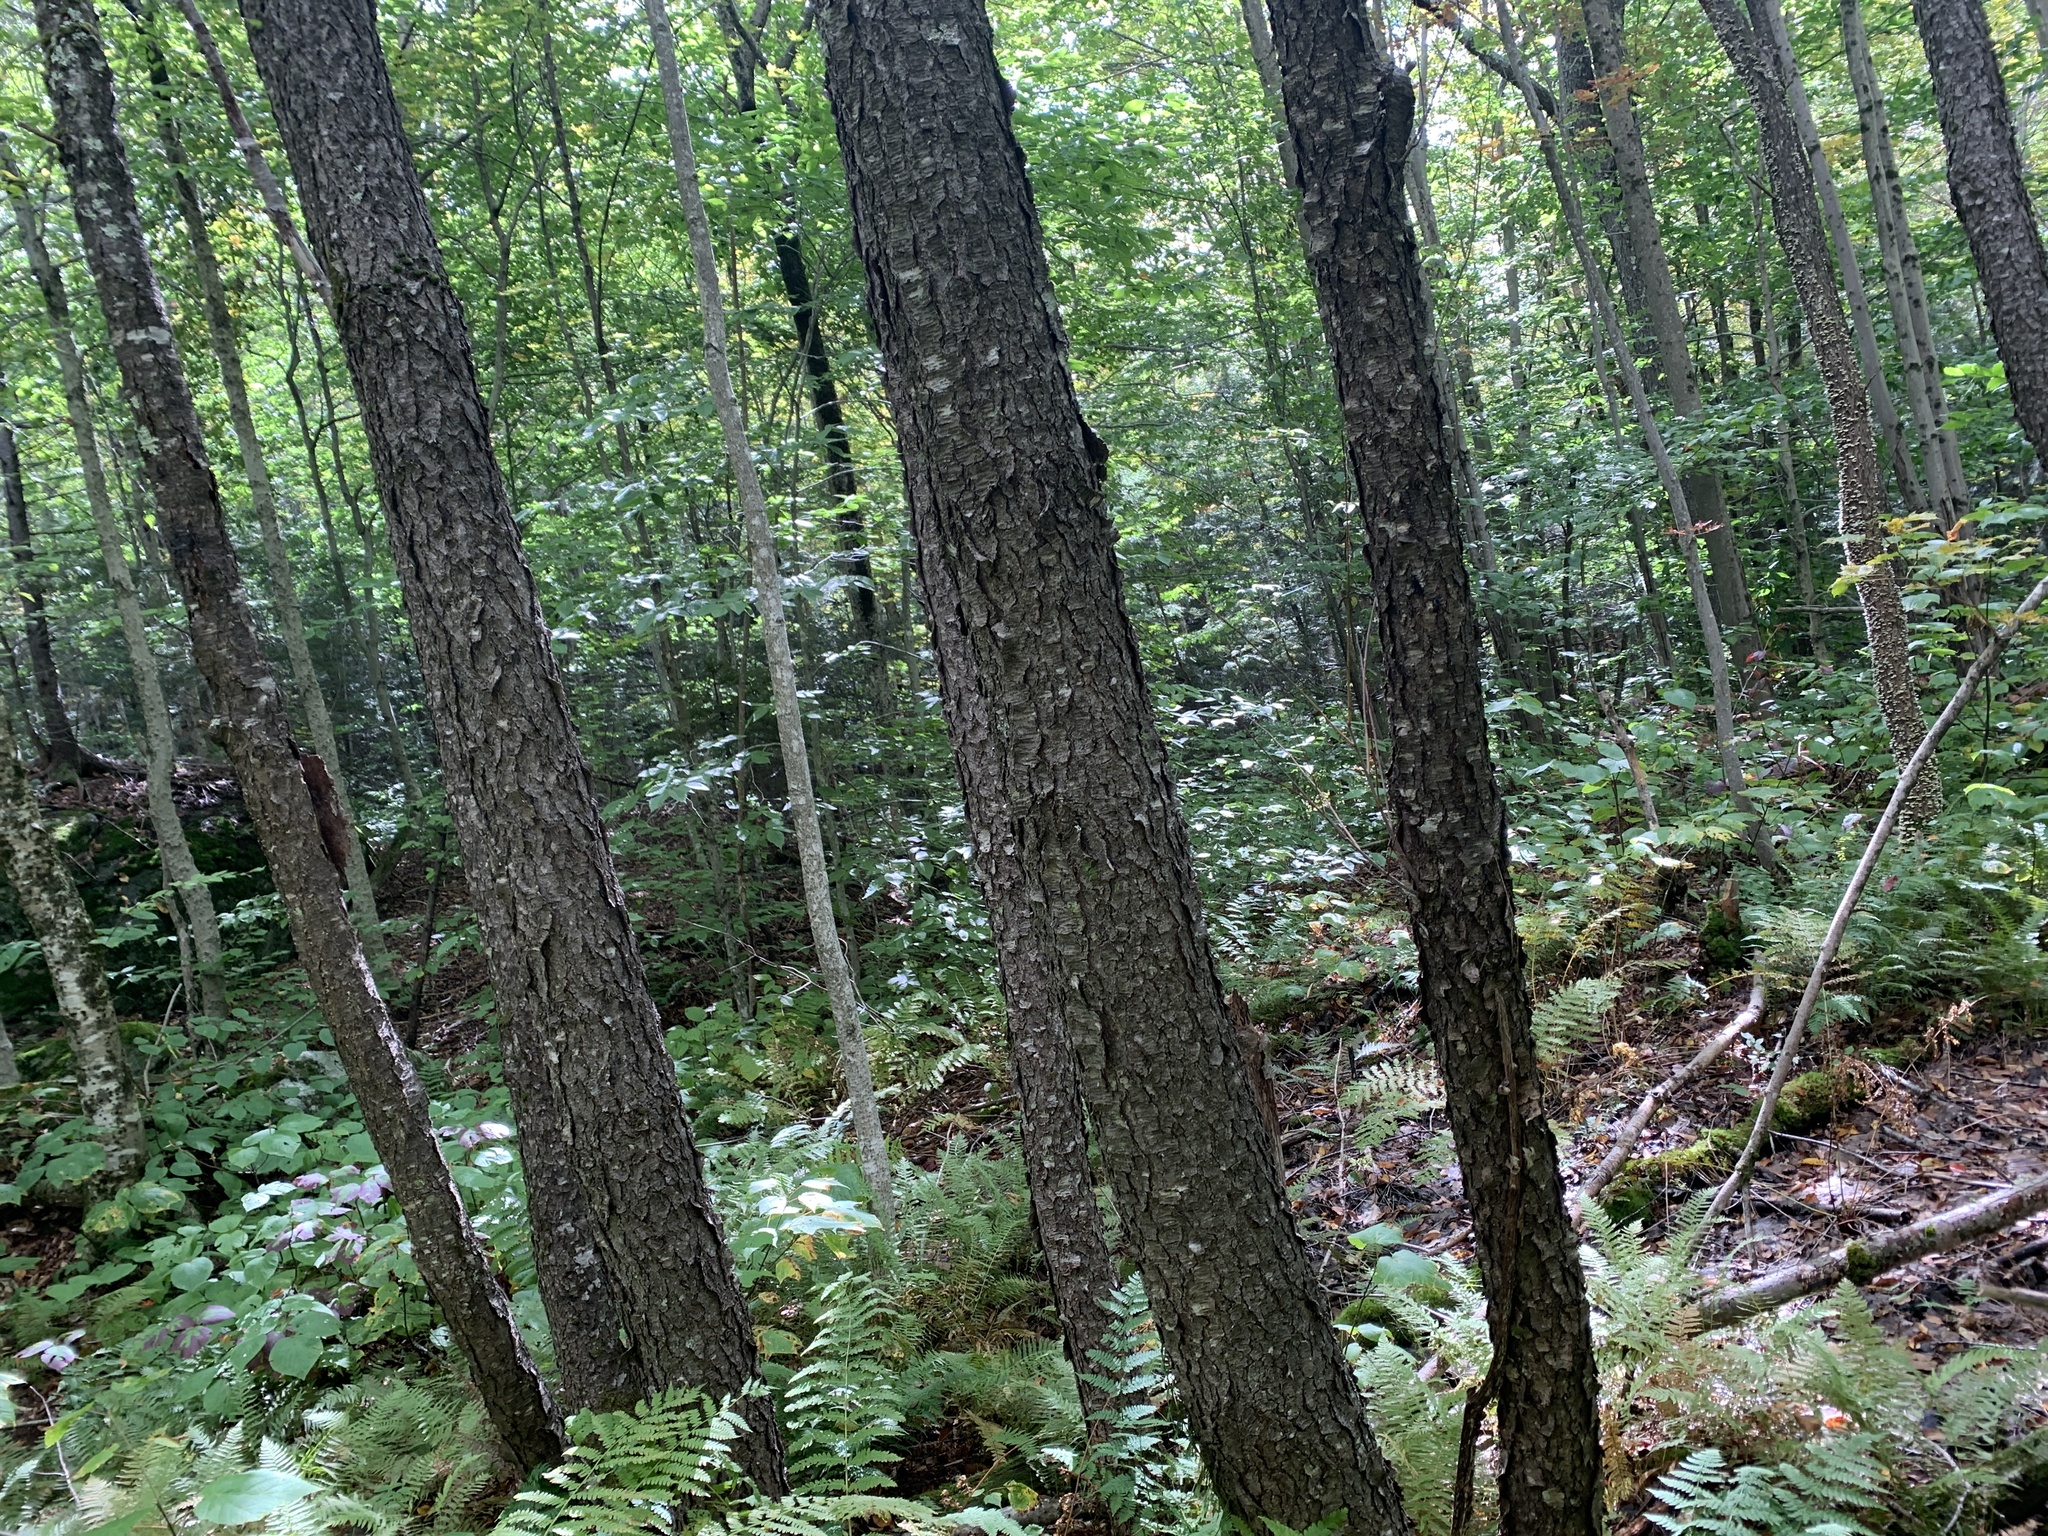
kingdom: Plantae
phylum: Tracheophyta
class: Magnoliopsida
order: Rosales
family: Rosaceae
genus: Prunus
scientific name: Prunus serotina
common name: Black cherry
